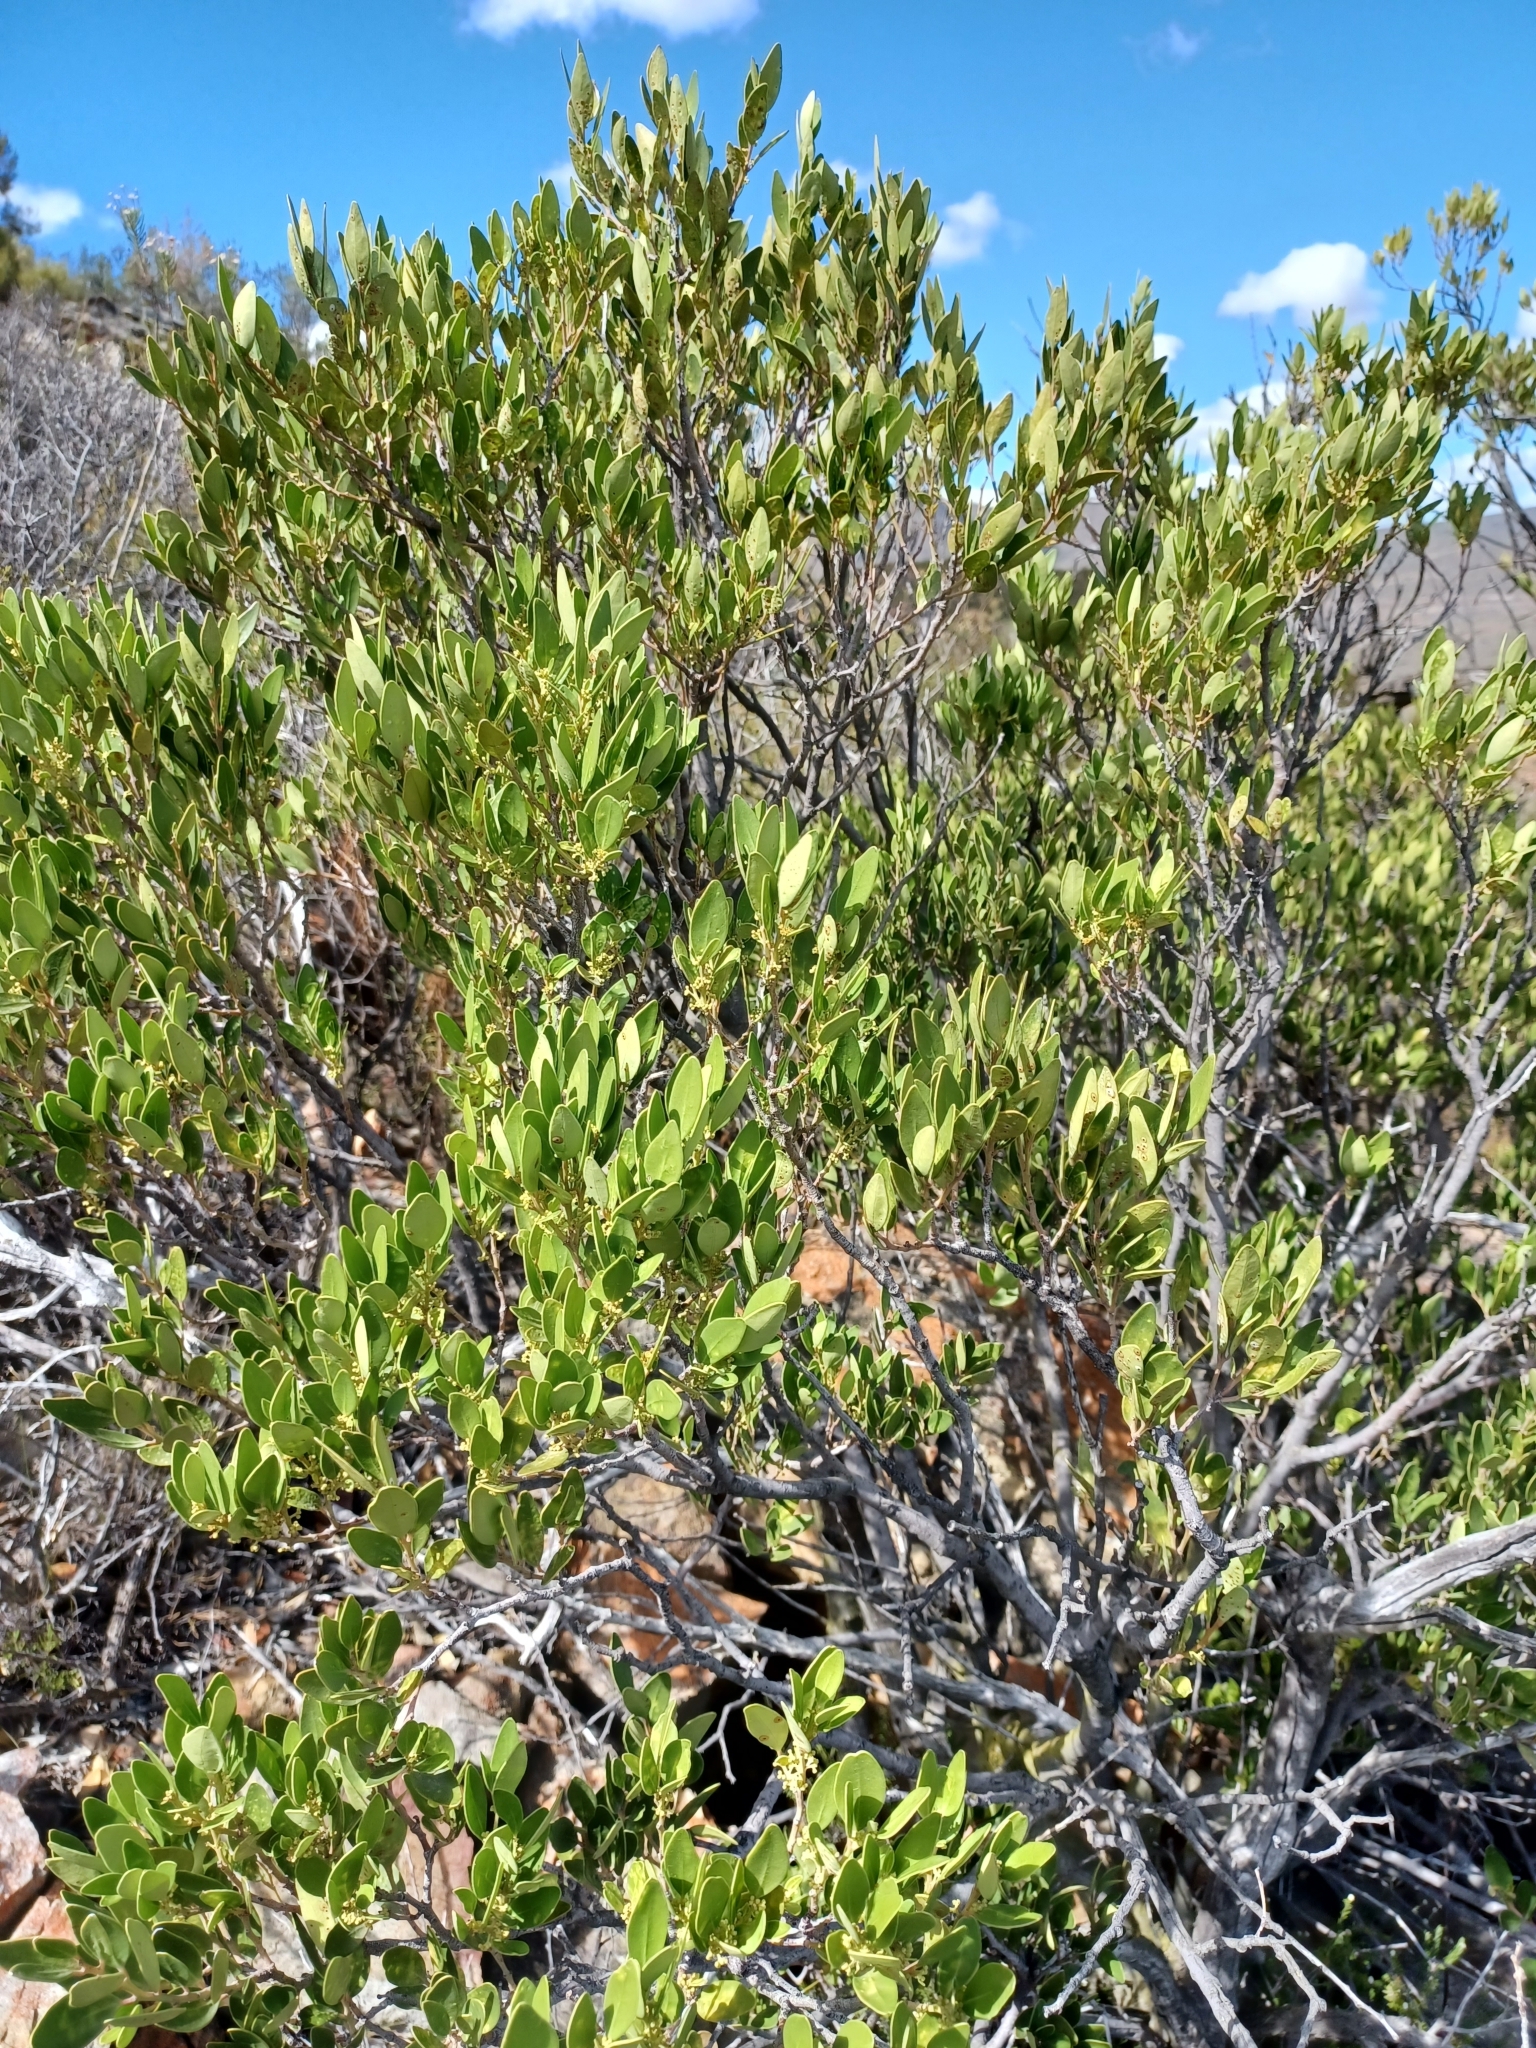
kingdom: Plantae
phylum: Tracheophyta
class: Magnoliopsida
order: Celastrales
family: Celastraceae
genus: Gymnosporia
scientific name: Gymnosporia laurina
